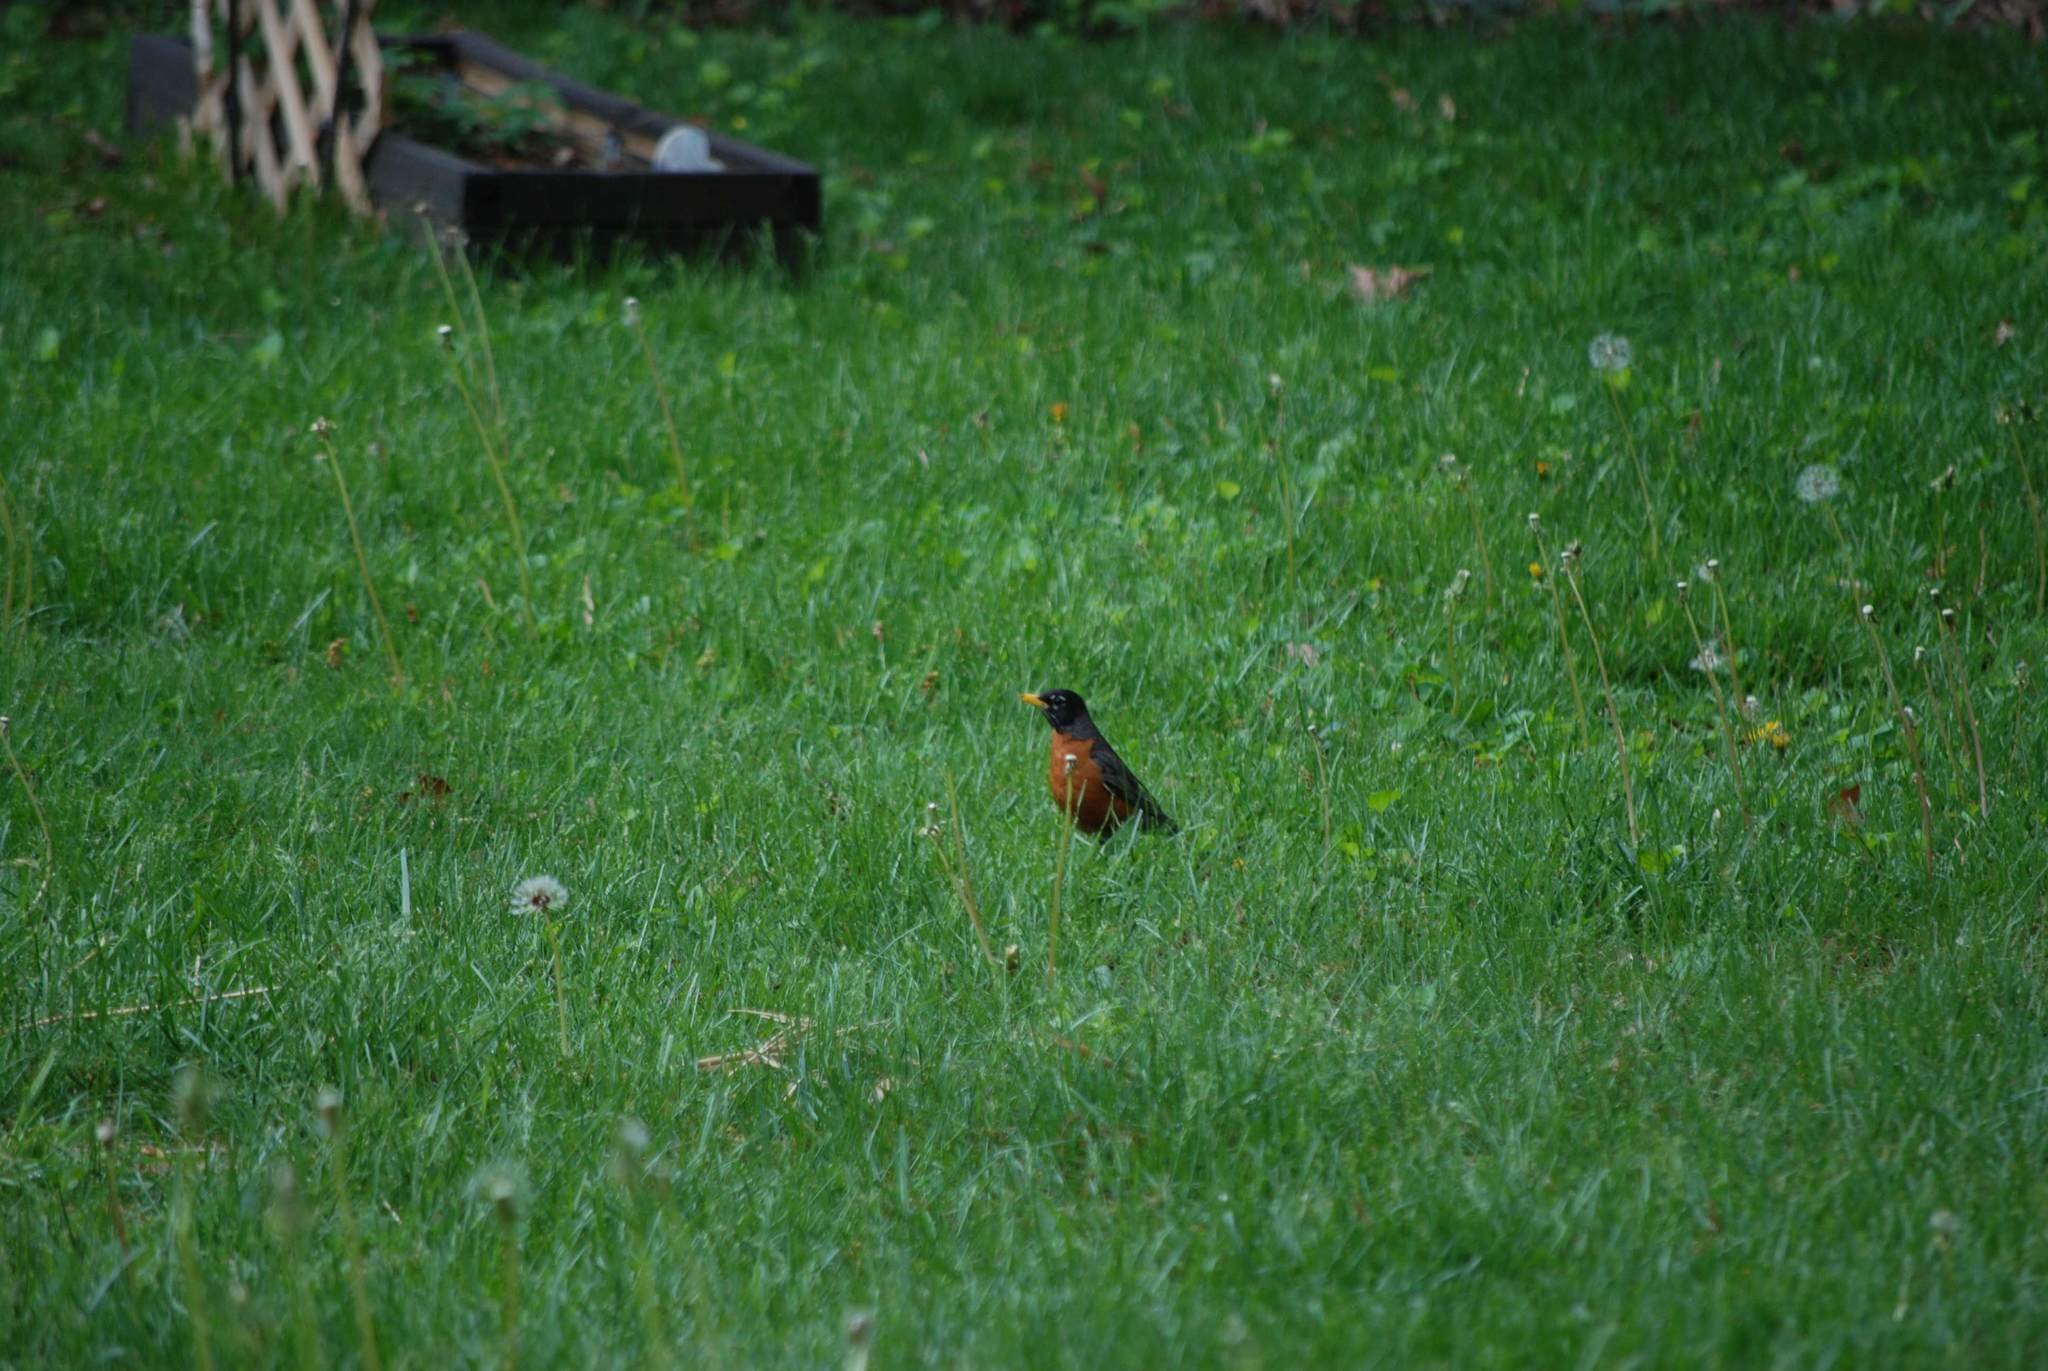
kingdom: Animalia
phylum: Chordata
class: Aves
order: Passeriformes
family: Turdidae
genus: Turdus
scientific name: Turdus migratorius
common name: American robin
